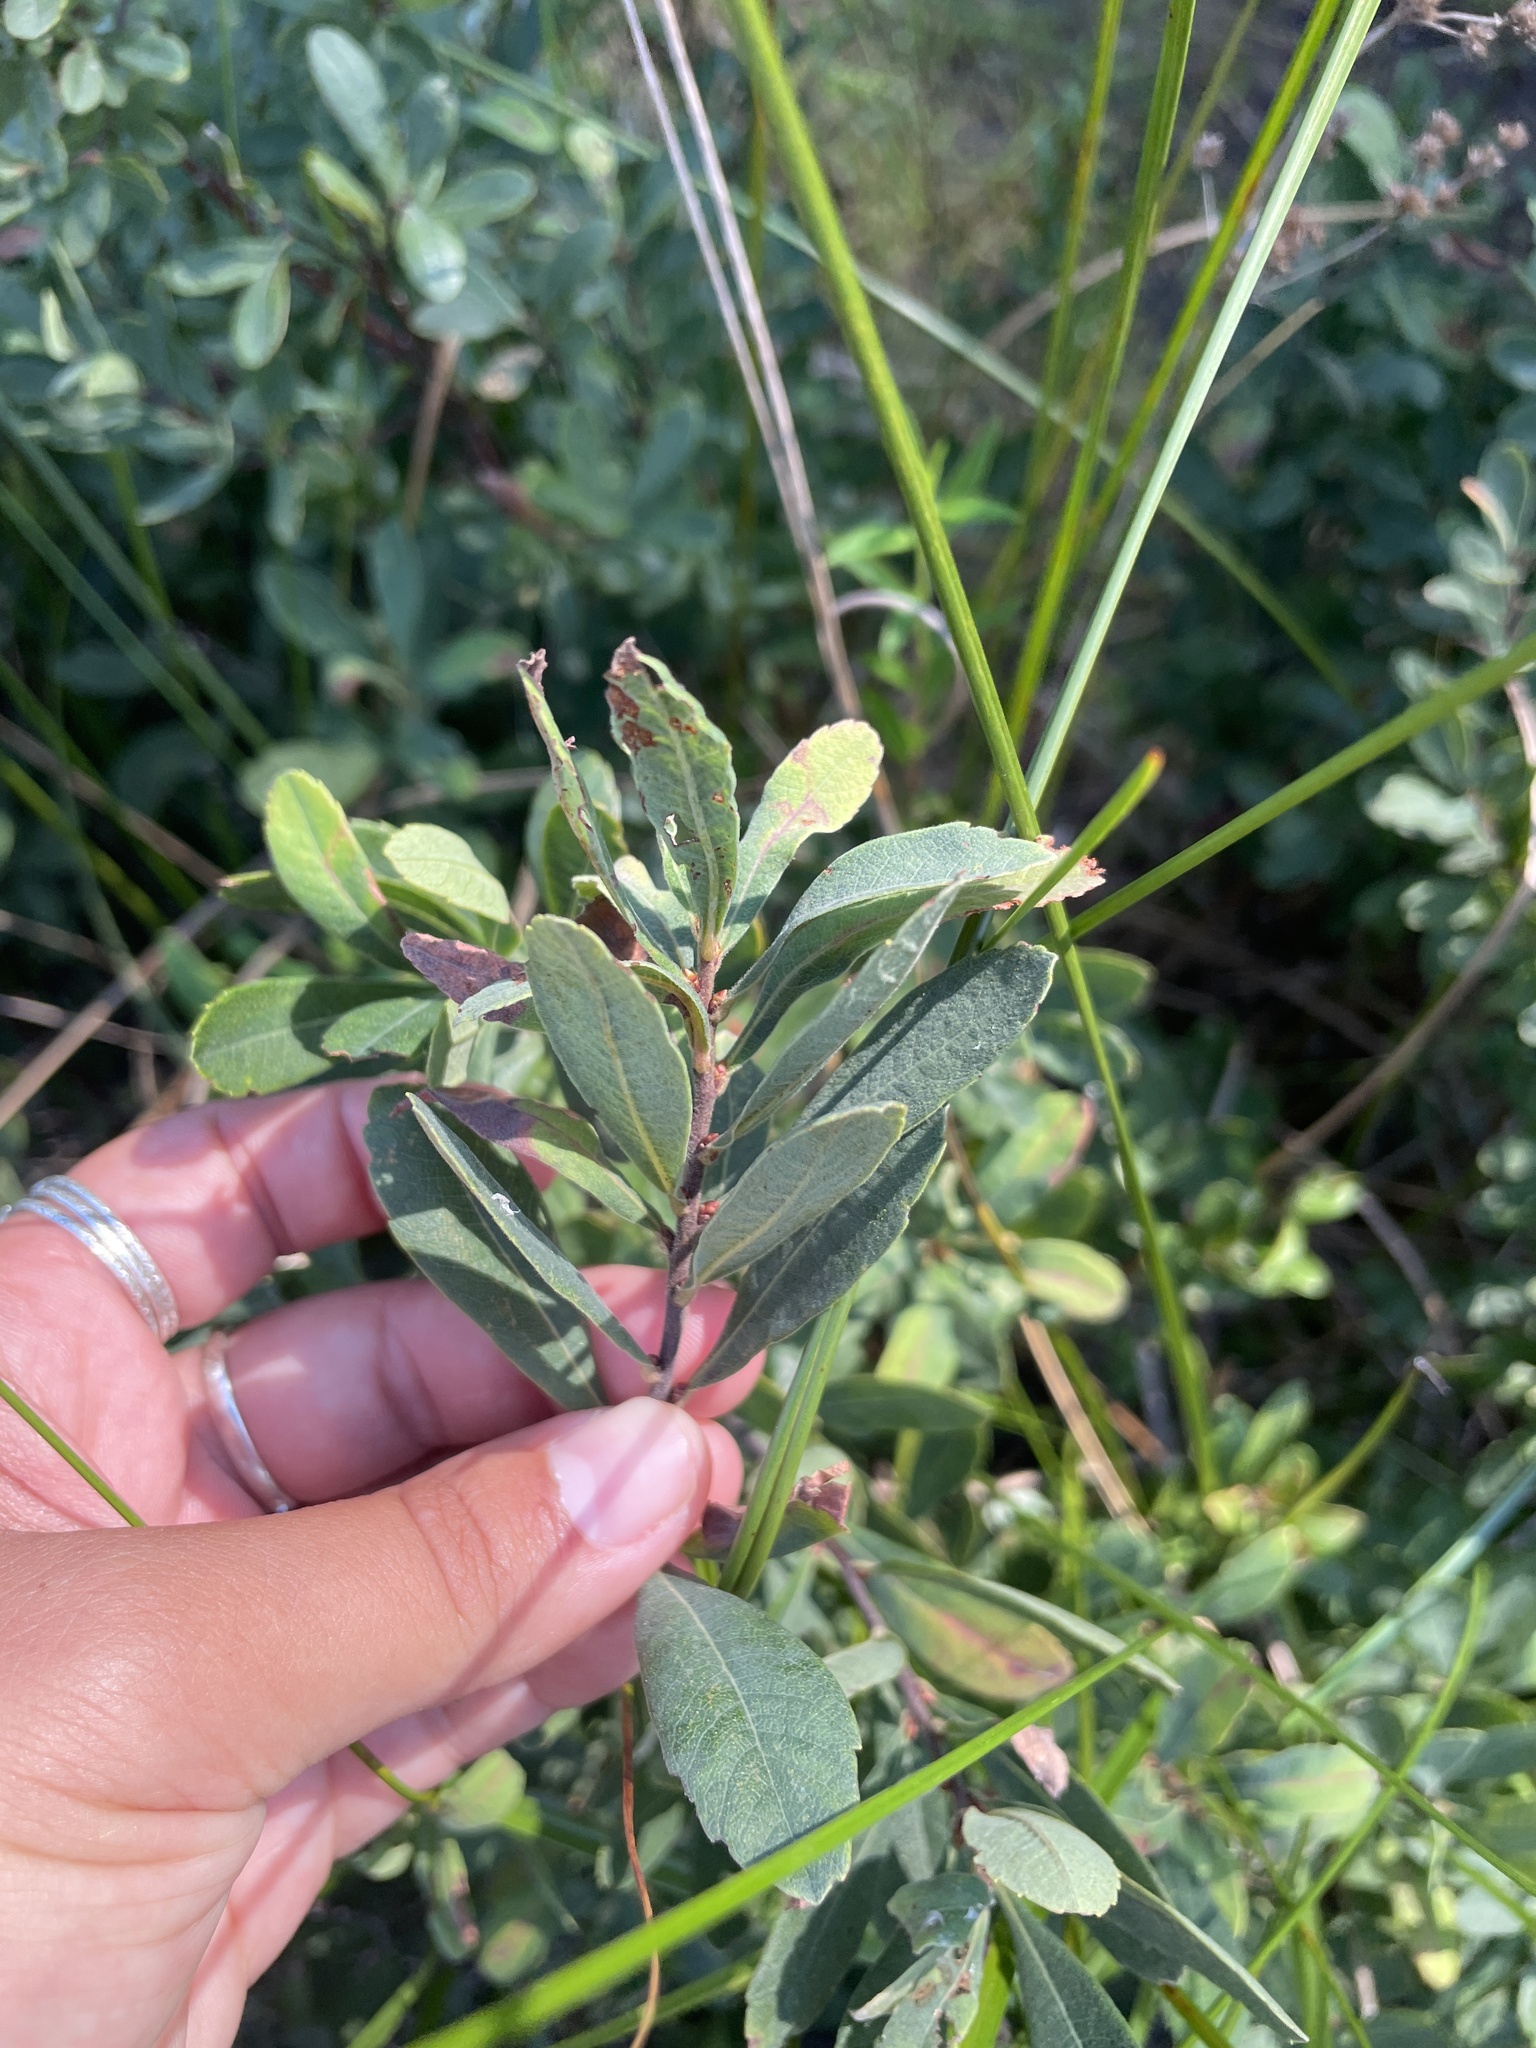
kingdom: Plantae
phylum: Tracheophyta
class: Magnoliopsida
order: Fagales
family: Myricaceae
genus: Myrica
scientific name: Myrica gale
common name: Sweet gale
